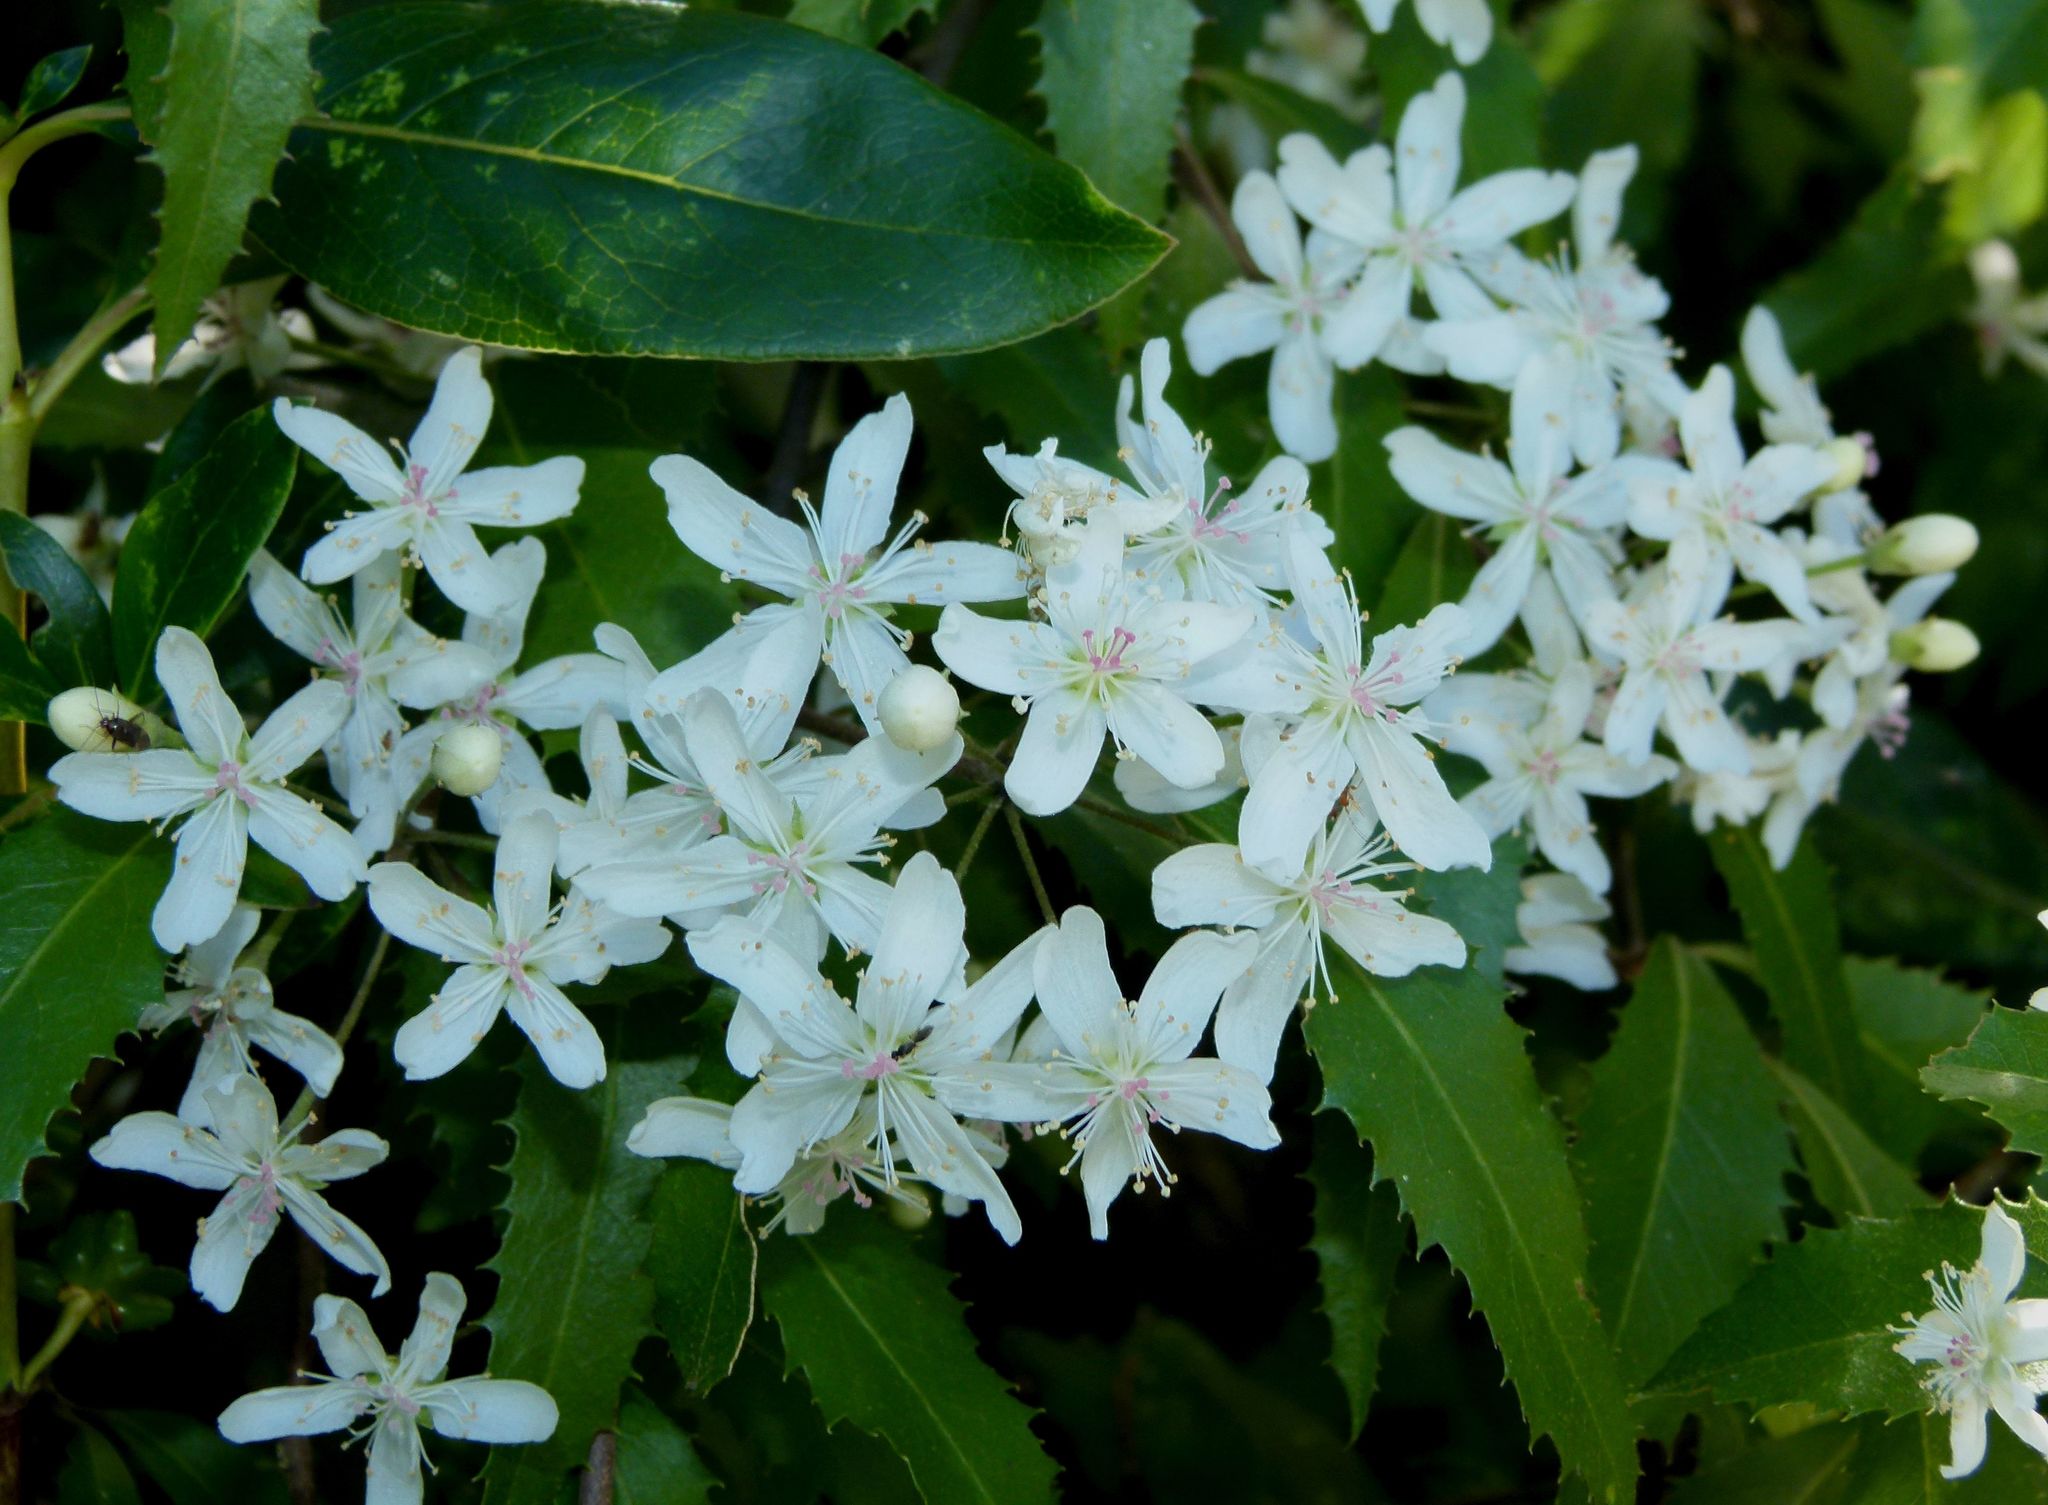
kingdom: Plantae
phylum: Tracheophyta
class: Magnoliopsida
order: Malvales
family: Malvaceae
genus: Hoheria
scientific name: Hoheria angustifolia
